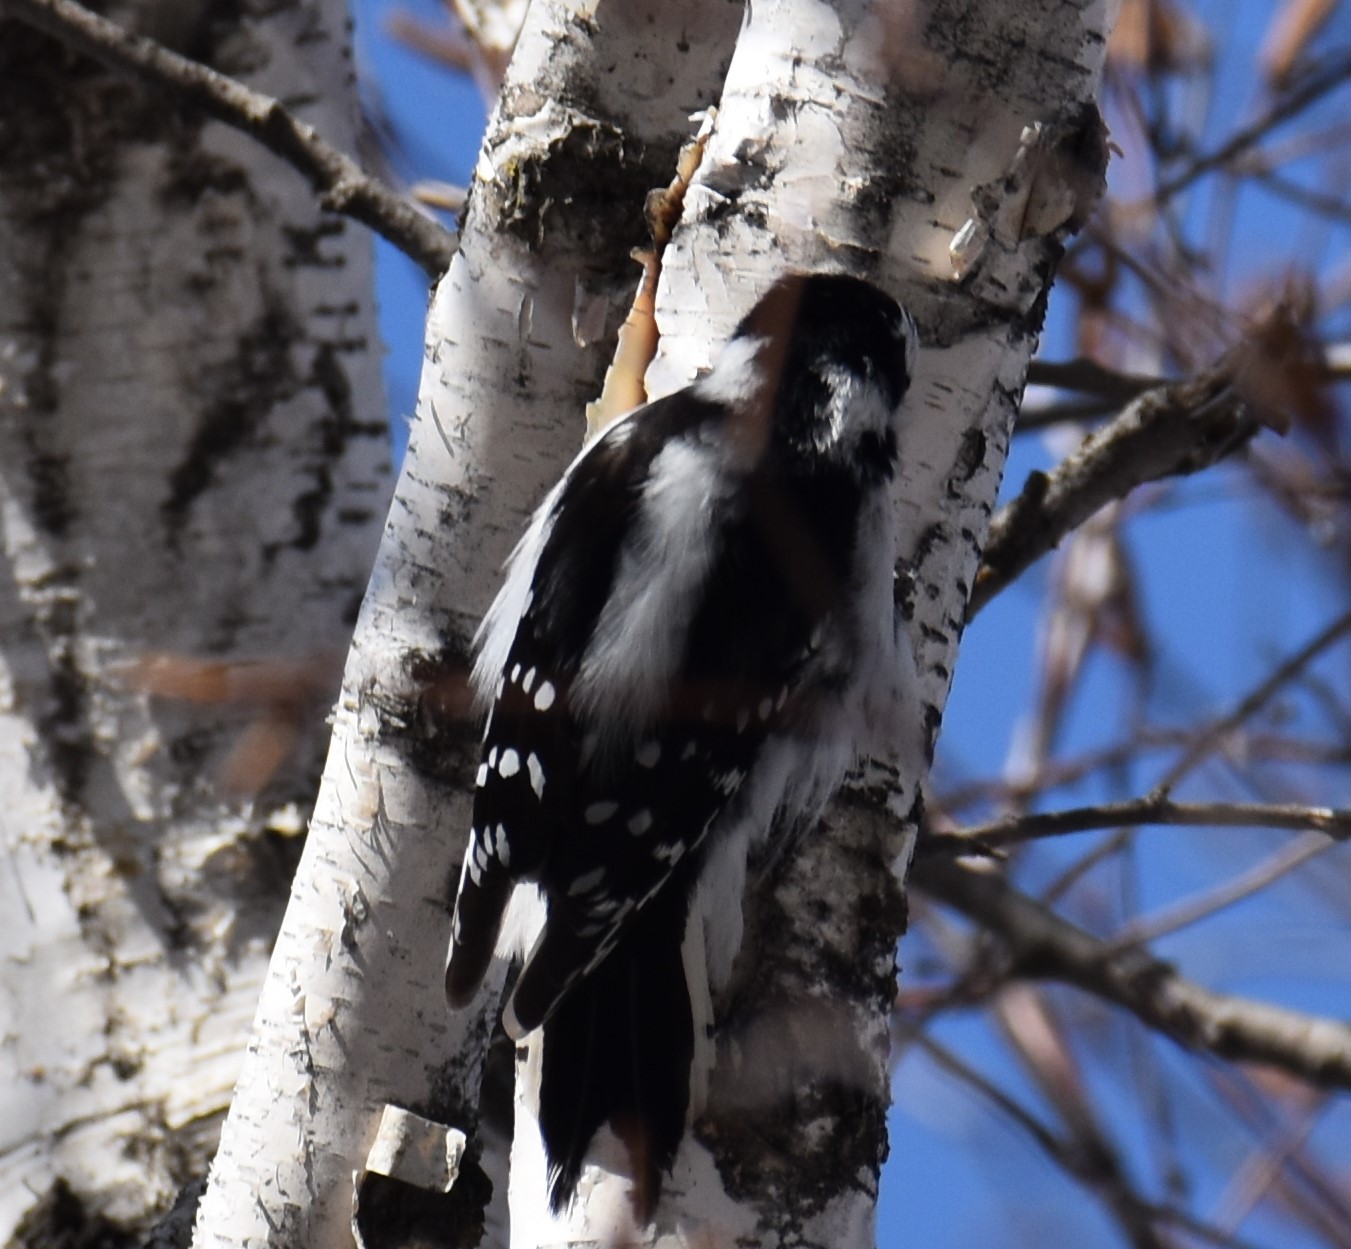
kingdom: Animalia
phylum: Chordata
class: Aves
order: Piciformes
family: Picidae
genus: Dryobates
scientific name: Dryobates pubescens
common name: Downy woodpecker
